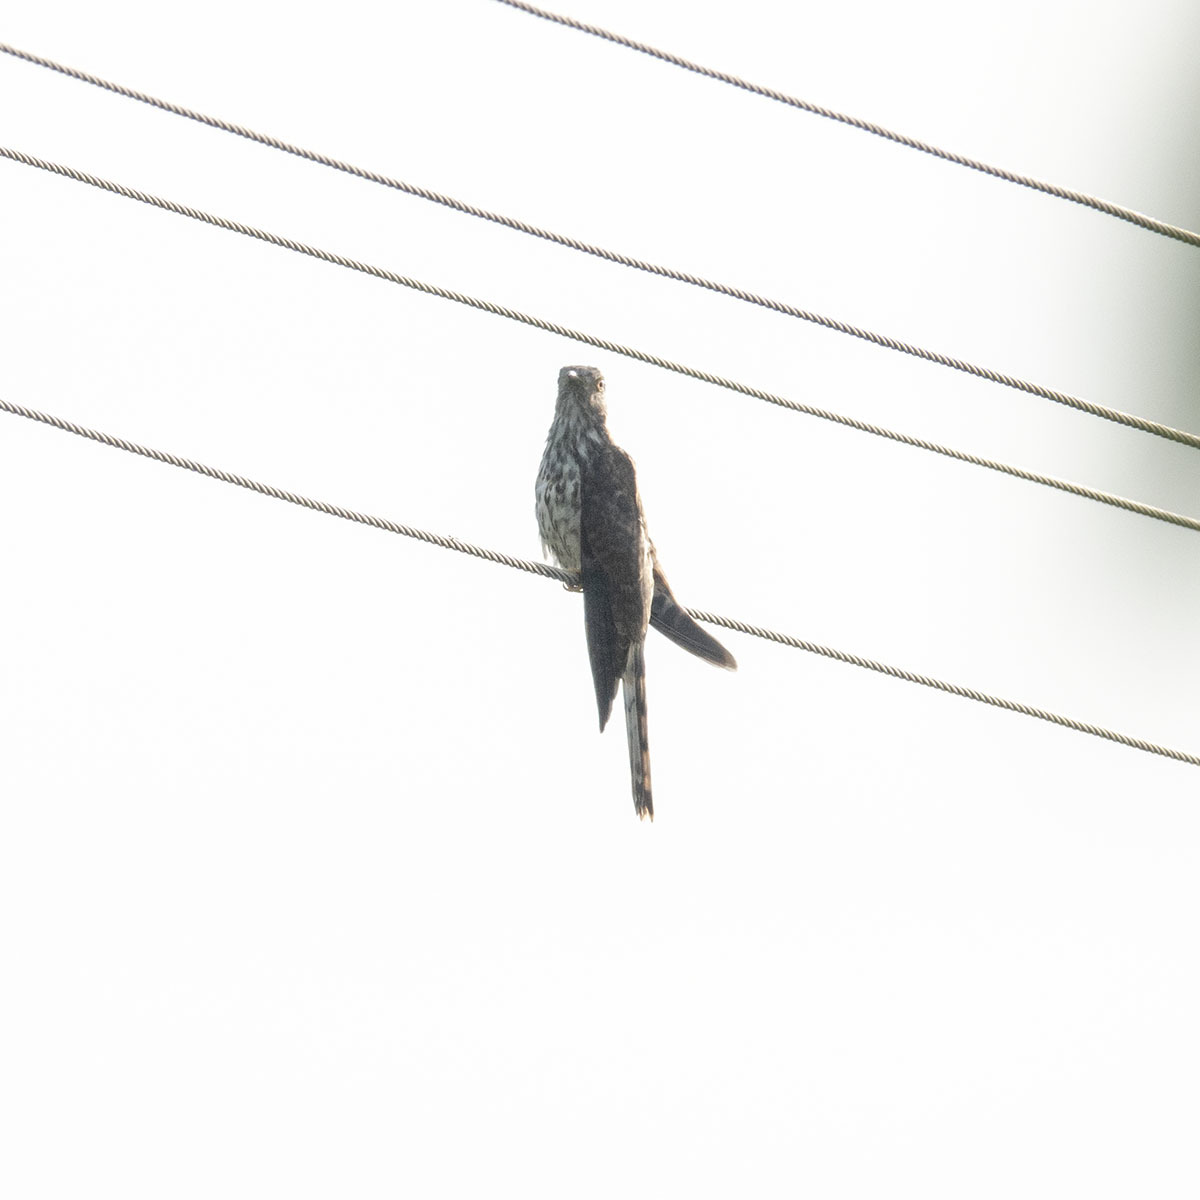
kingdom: Animalia
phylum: Chordata
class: Aves
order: Cuculiformes
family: Cuculidae
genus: Cuculus
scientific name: Cuculus varius
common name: Common hawk cuckoo
